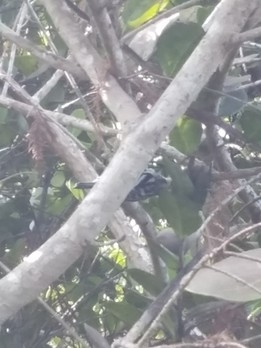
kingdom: Animalia
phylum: Chordata
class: Aves
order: Passeriformes
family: Parulidae
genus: Mniotilta
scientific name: Mniotilta varia
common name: Black-and-white warbler
